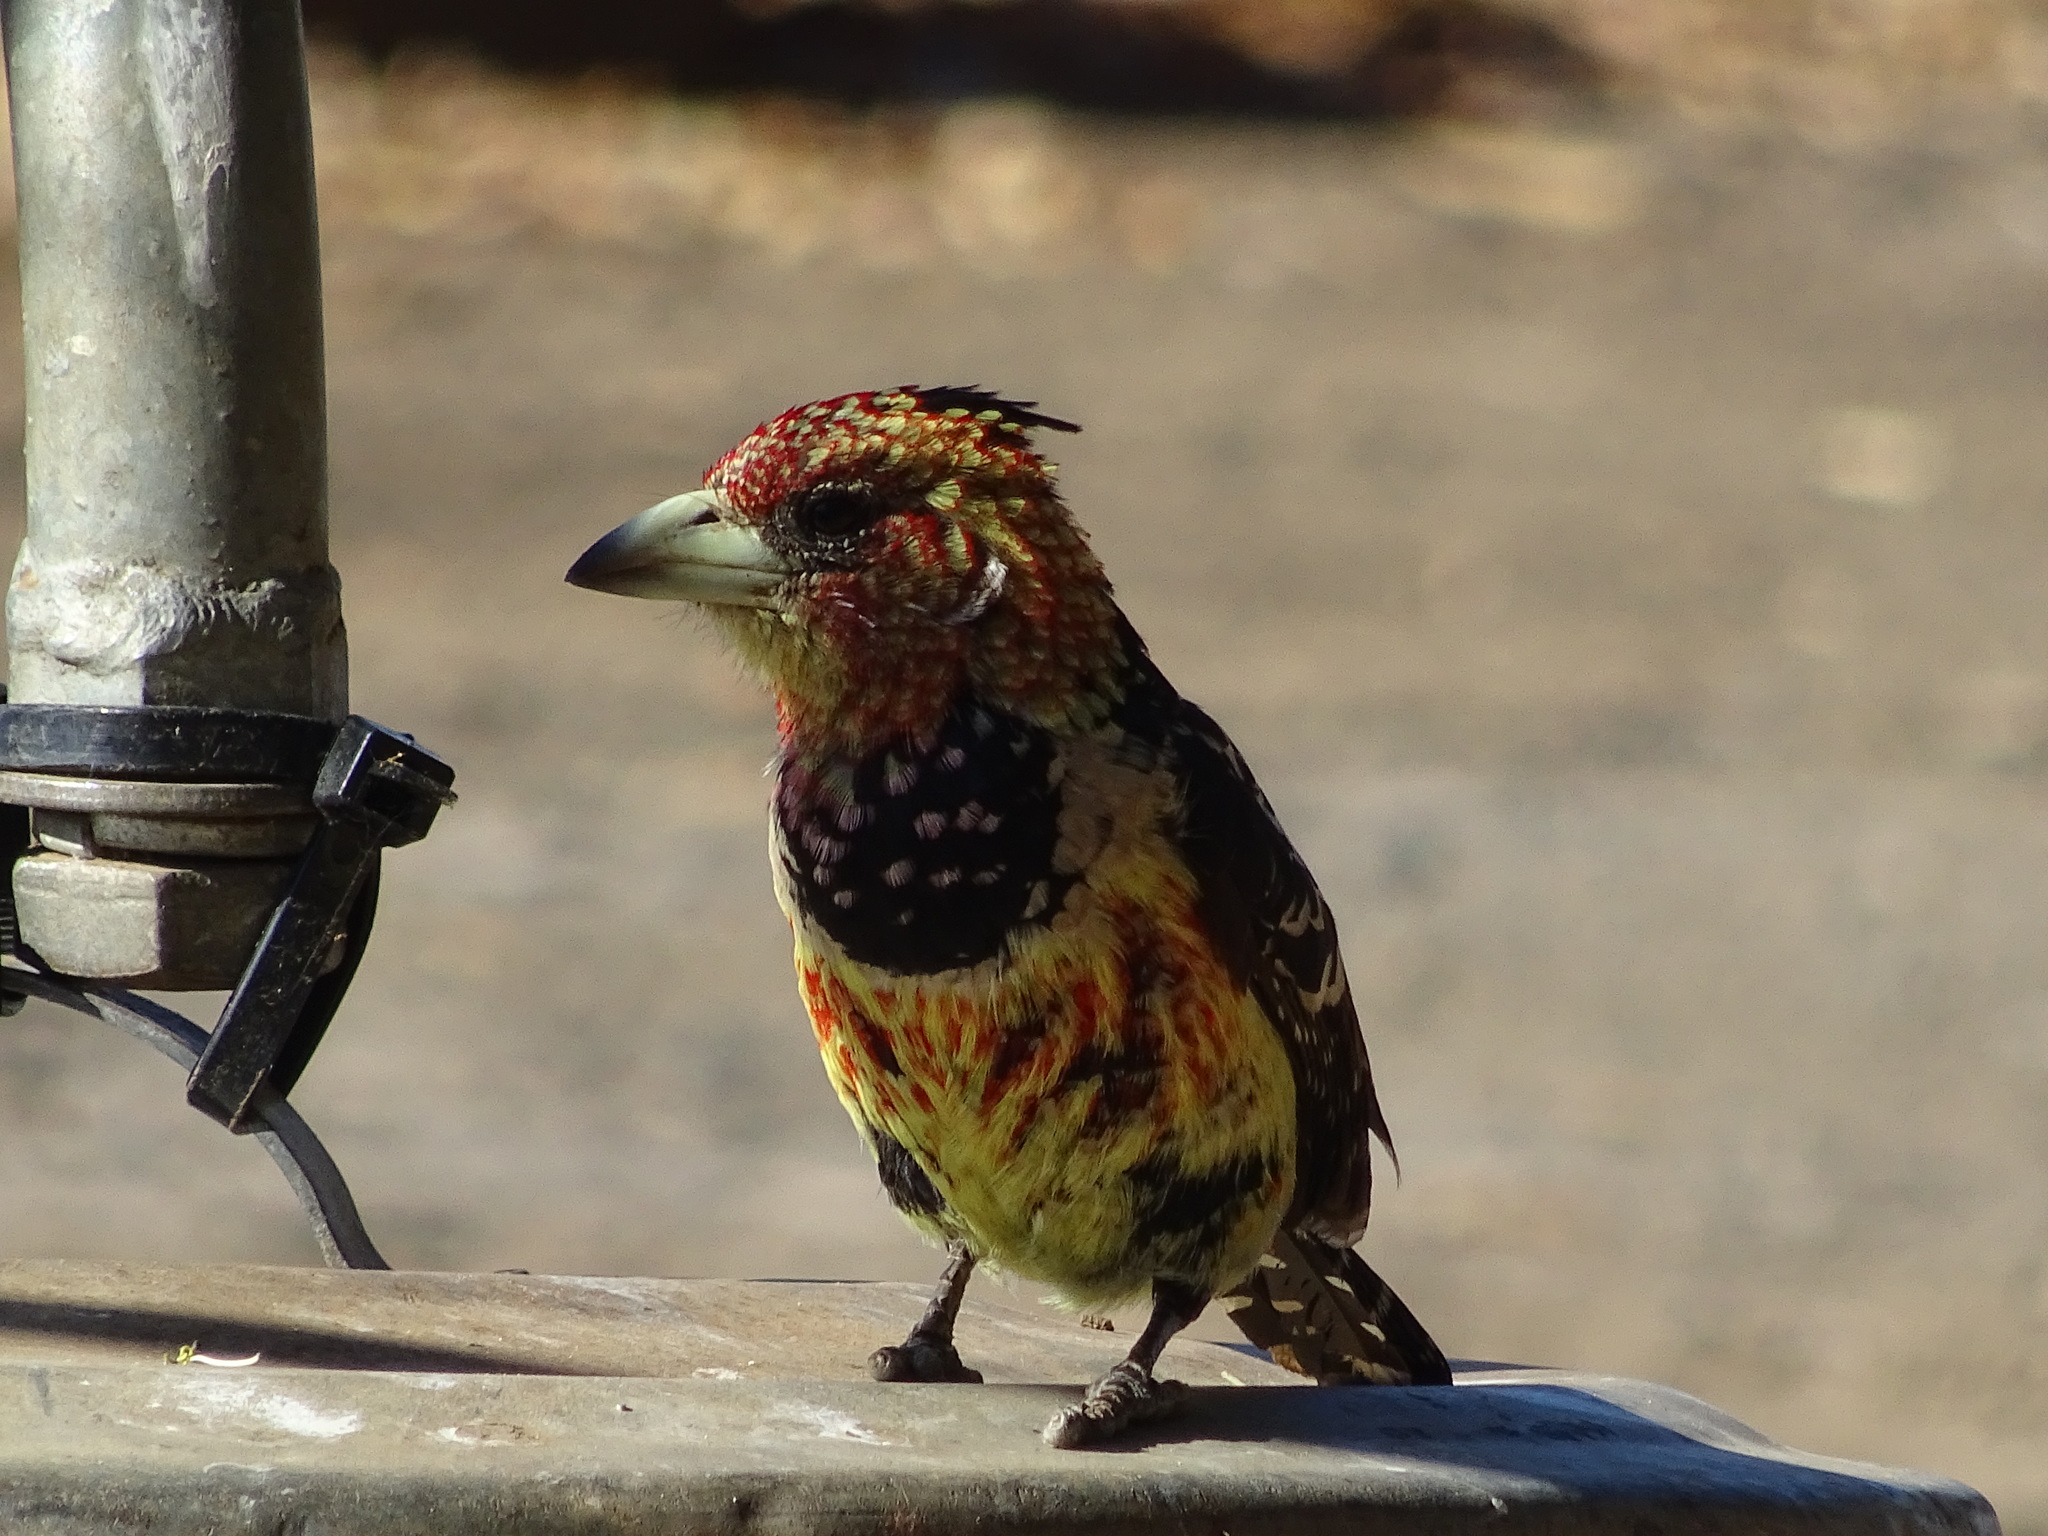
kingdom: Animalia
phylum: Chordata
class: Aves
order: Piciformes
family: Lybiidae
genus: Trachyphonus
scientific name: Trachyphonus vaillantii
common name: Crested barbet
